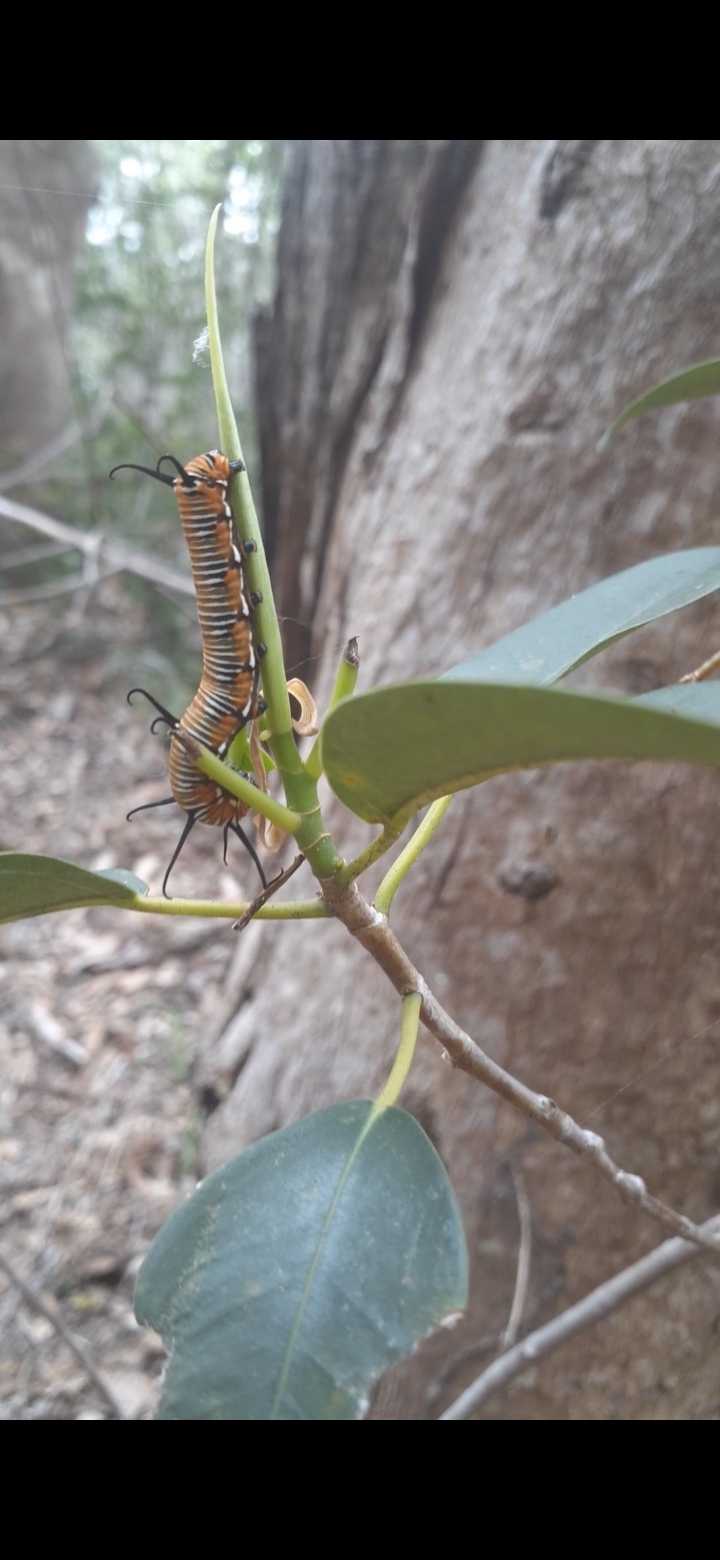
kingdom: Animalia
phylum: Arthropoda
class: Insecta
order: Lepidoptera
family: Nymphalidae
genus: Euploea
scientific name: Euploea core
